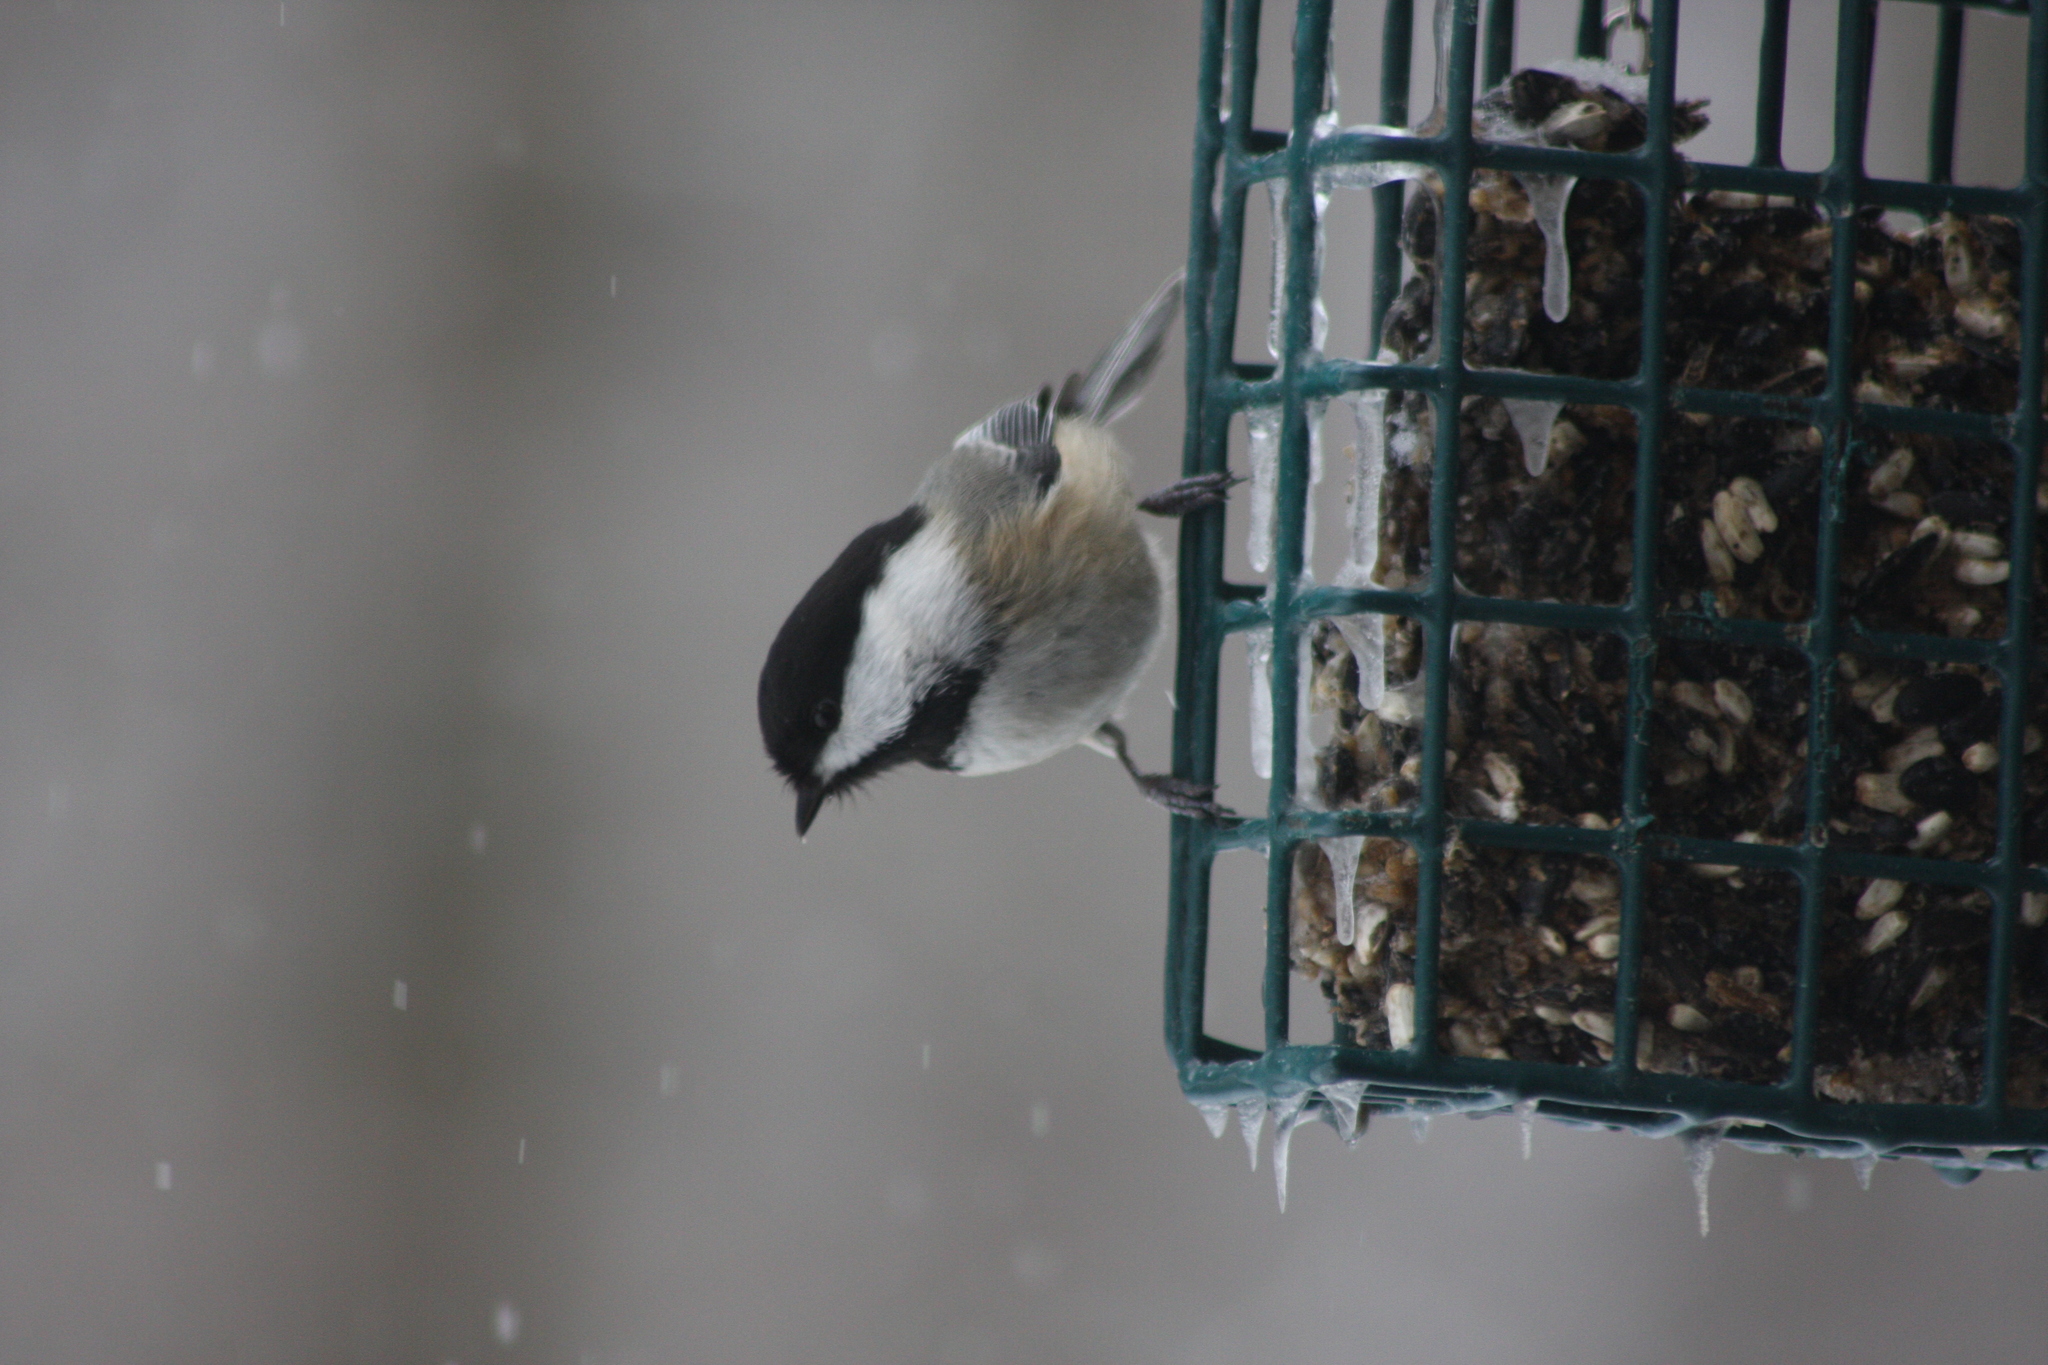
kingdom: Animalia
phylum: Chordata
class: Aves
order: Passeriformes
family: Paridae
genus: Poecile
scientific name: Poecile atricapillus
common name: Black-capped chickadee
